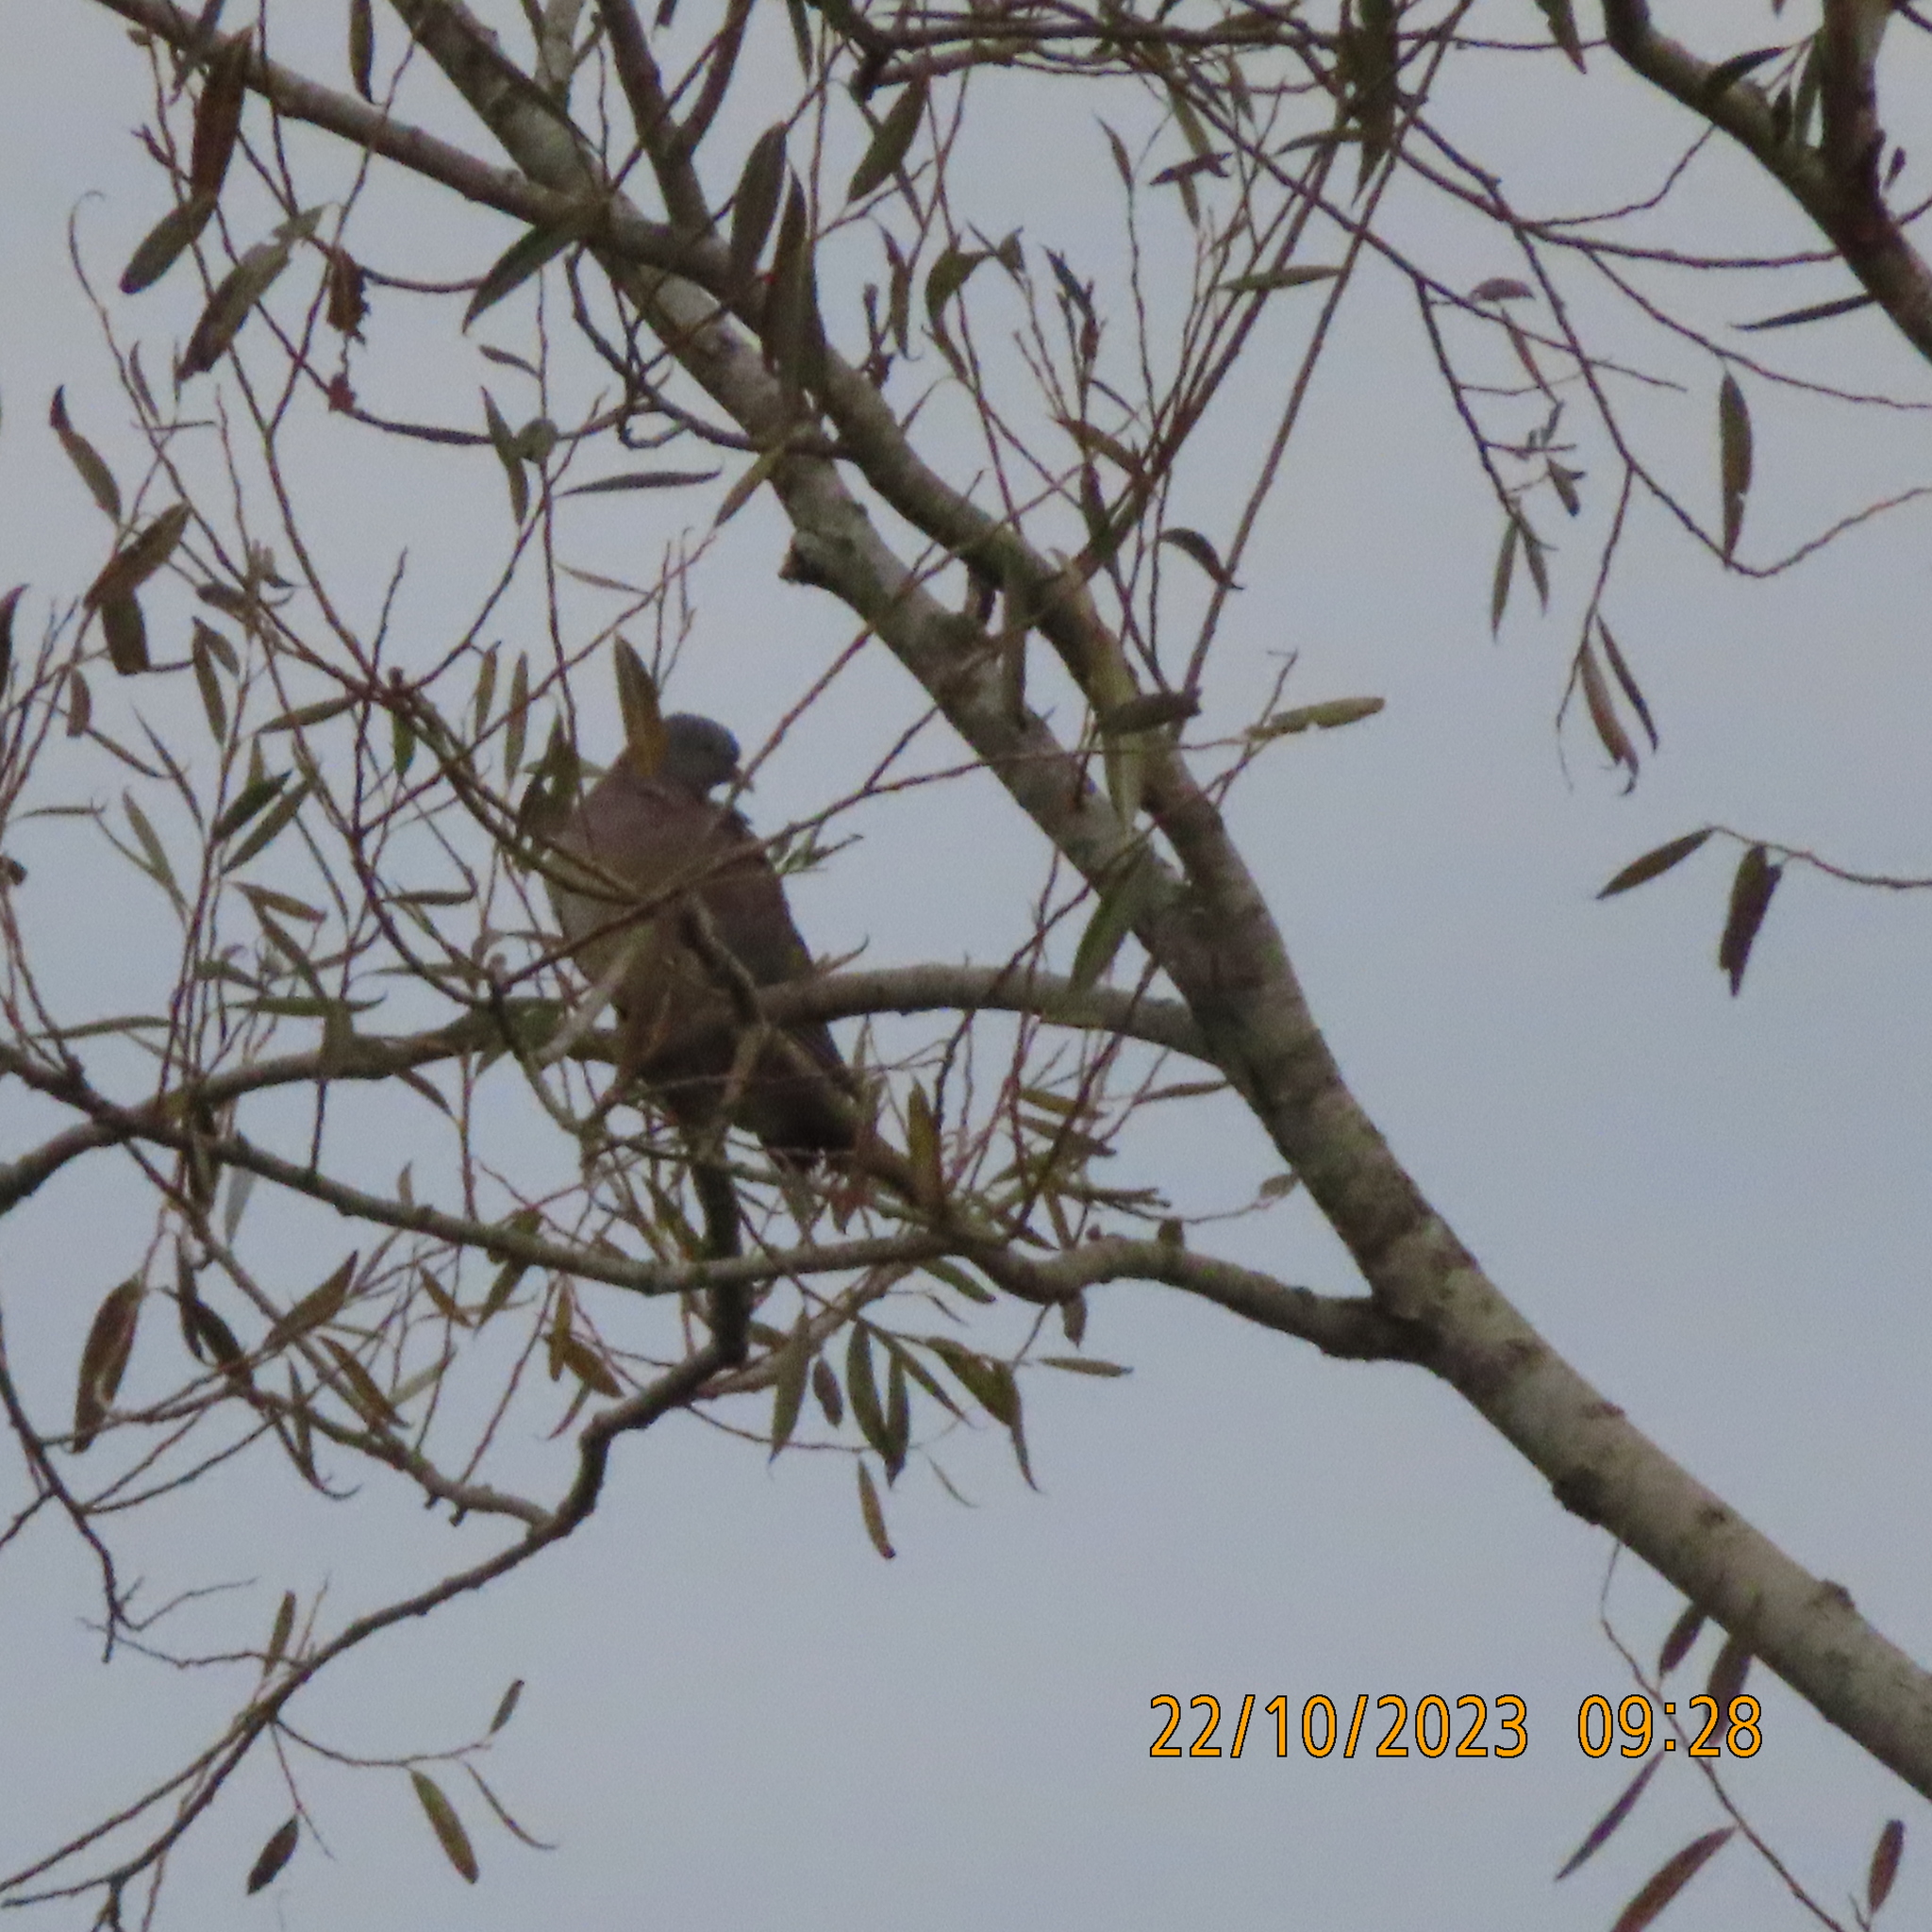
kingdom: Animalia
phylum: Chordata
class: Aves
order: Columbiformes
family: Columbidae
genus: Columba
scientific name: Columba palumbus
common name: Common wood pigeon
